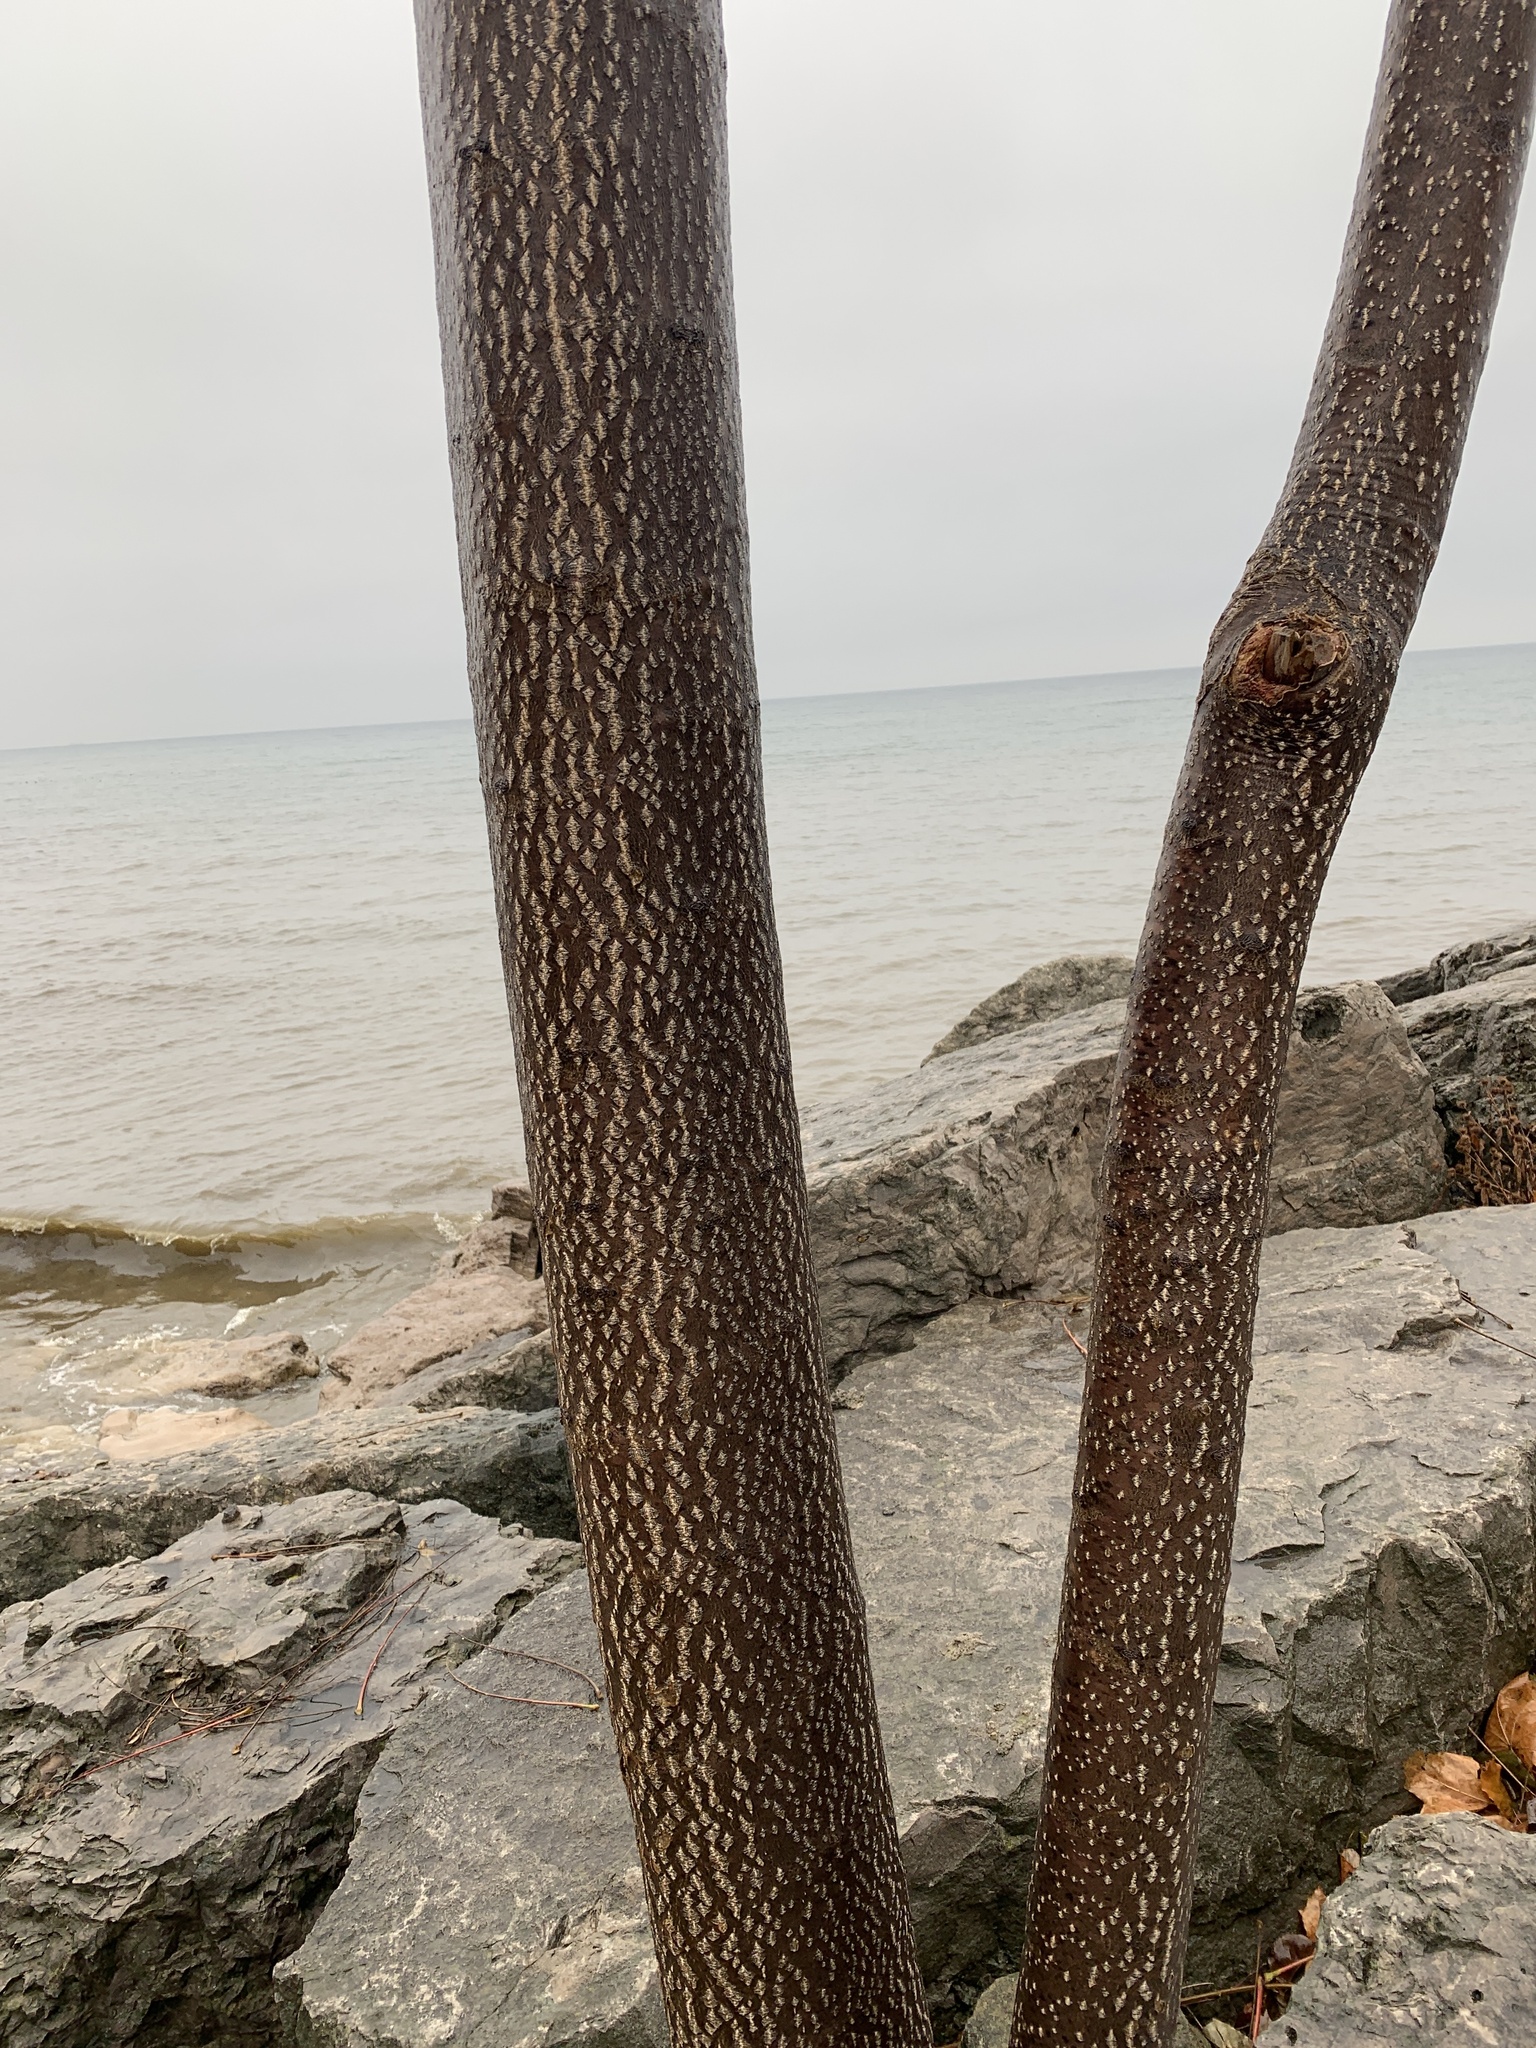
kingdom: Plantae
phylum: Tracheophyta
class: Magnoliopsida
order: Sapindales
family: Simaroubaceae
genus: Ailanthus
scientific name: Ailanthus altissima
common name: Tree-of-heaven
